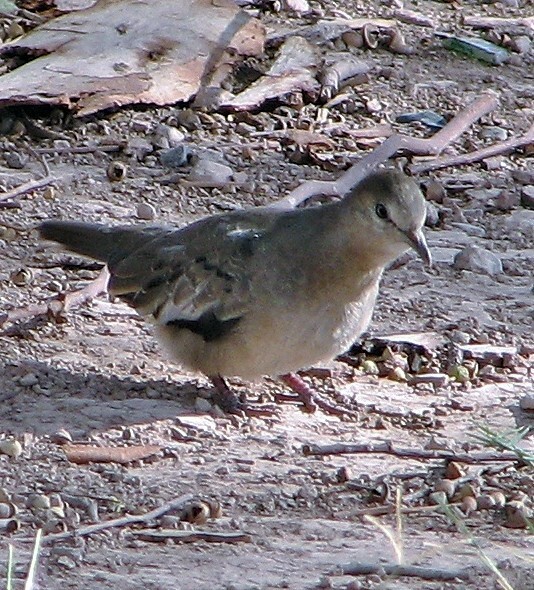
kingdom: Animalia
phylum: Chordata
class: Aves
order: Columbiformes
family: Columbidae
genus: Columbina
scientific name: Columbina picui
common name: Picui ground dove
